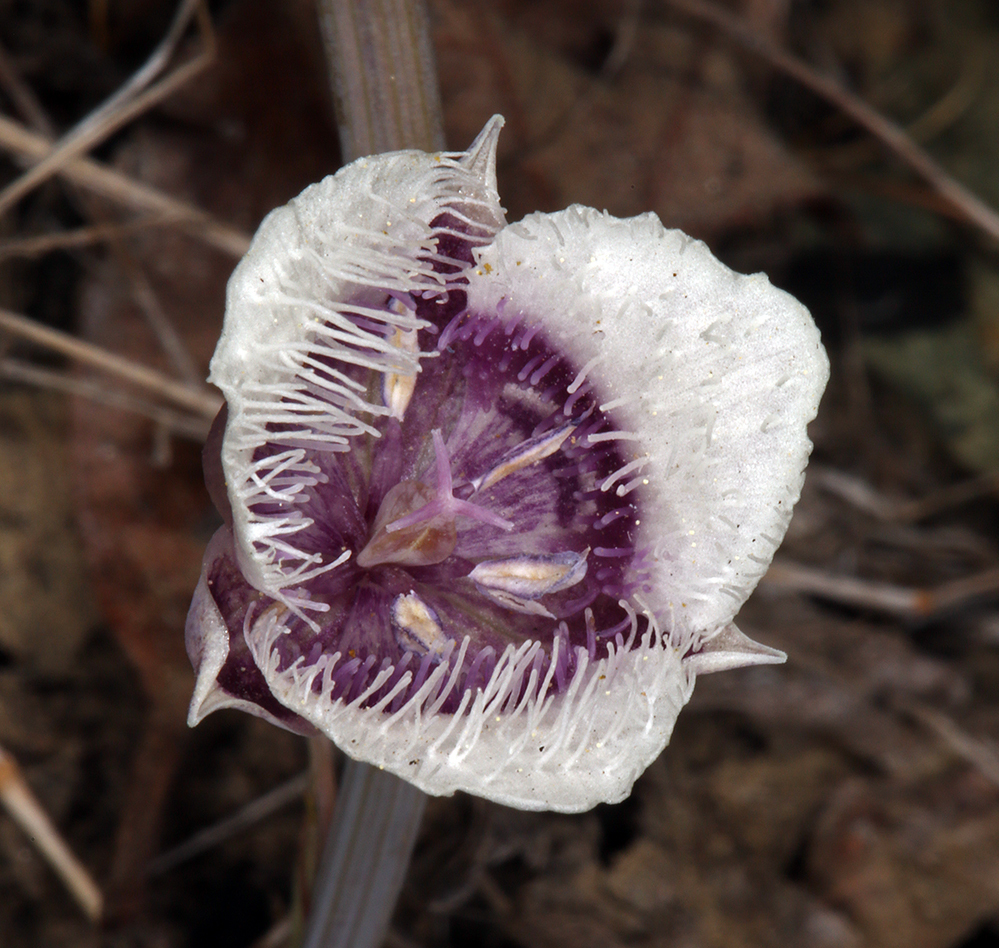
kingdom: Plantae
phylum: Tracheophyta
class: Liliopsida
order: Liliales
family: Liliaceae
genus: Calochortus
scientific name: Calochortus elegans
